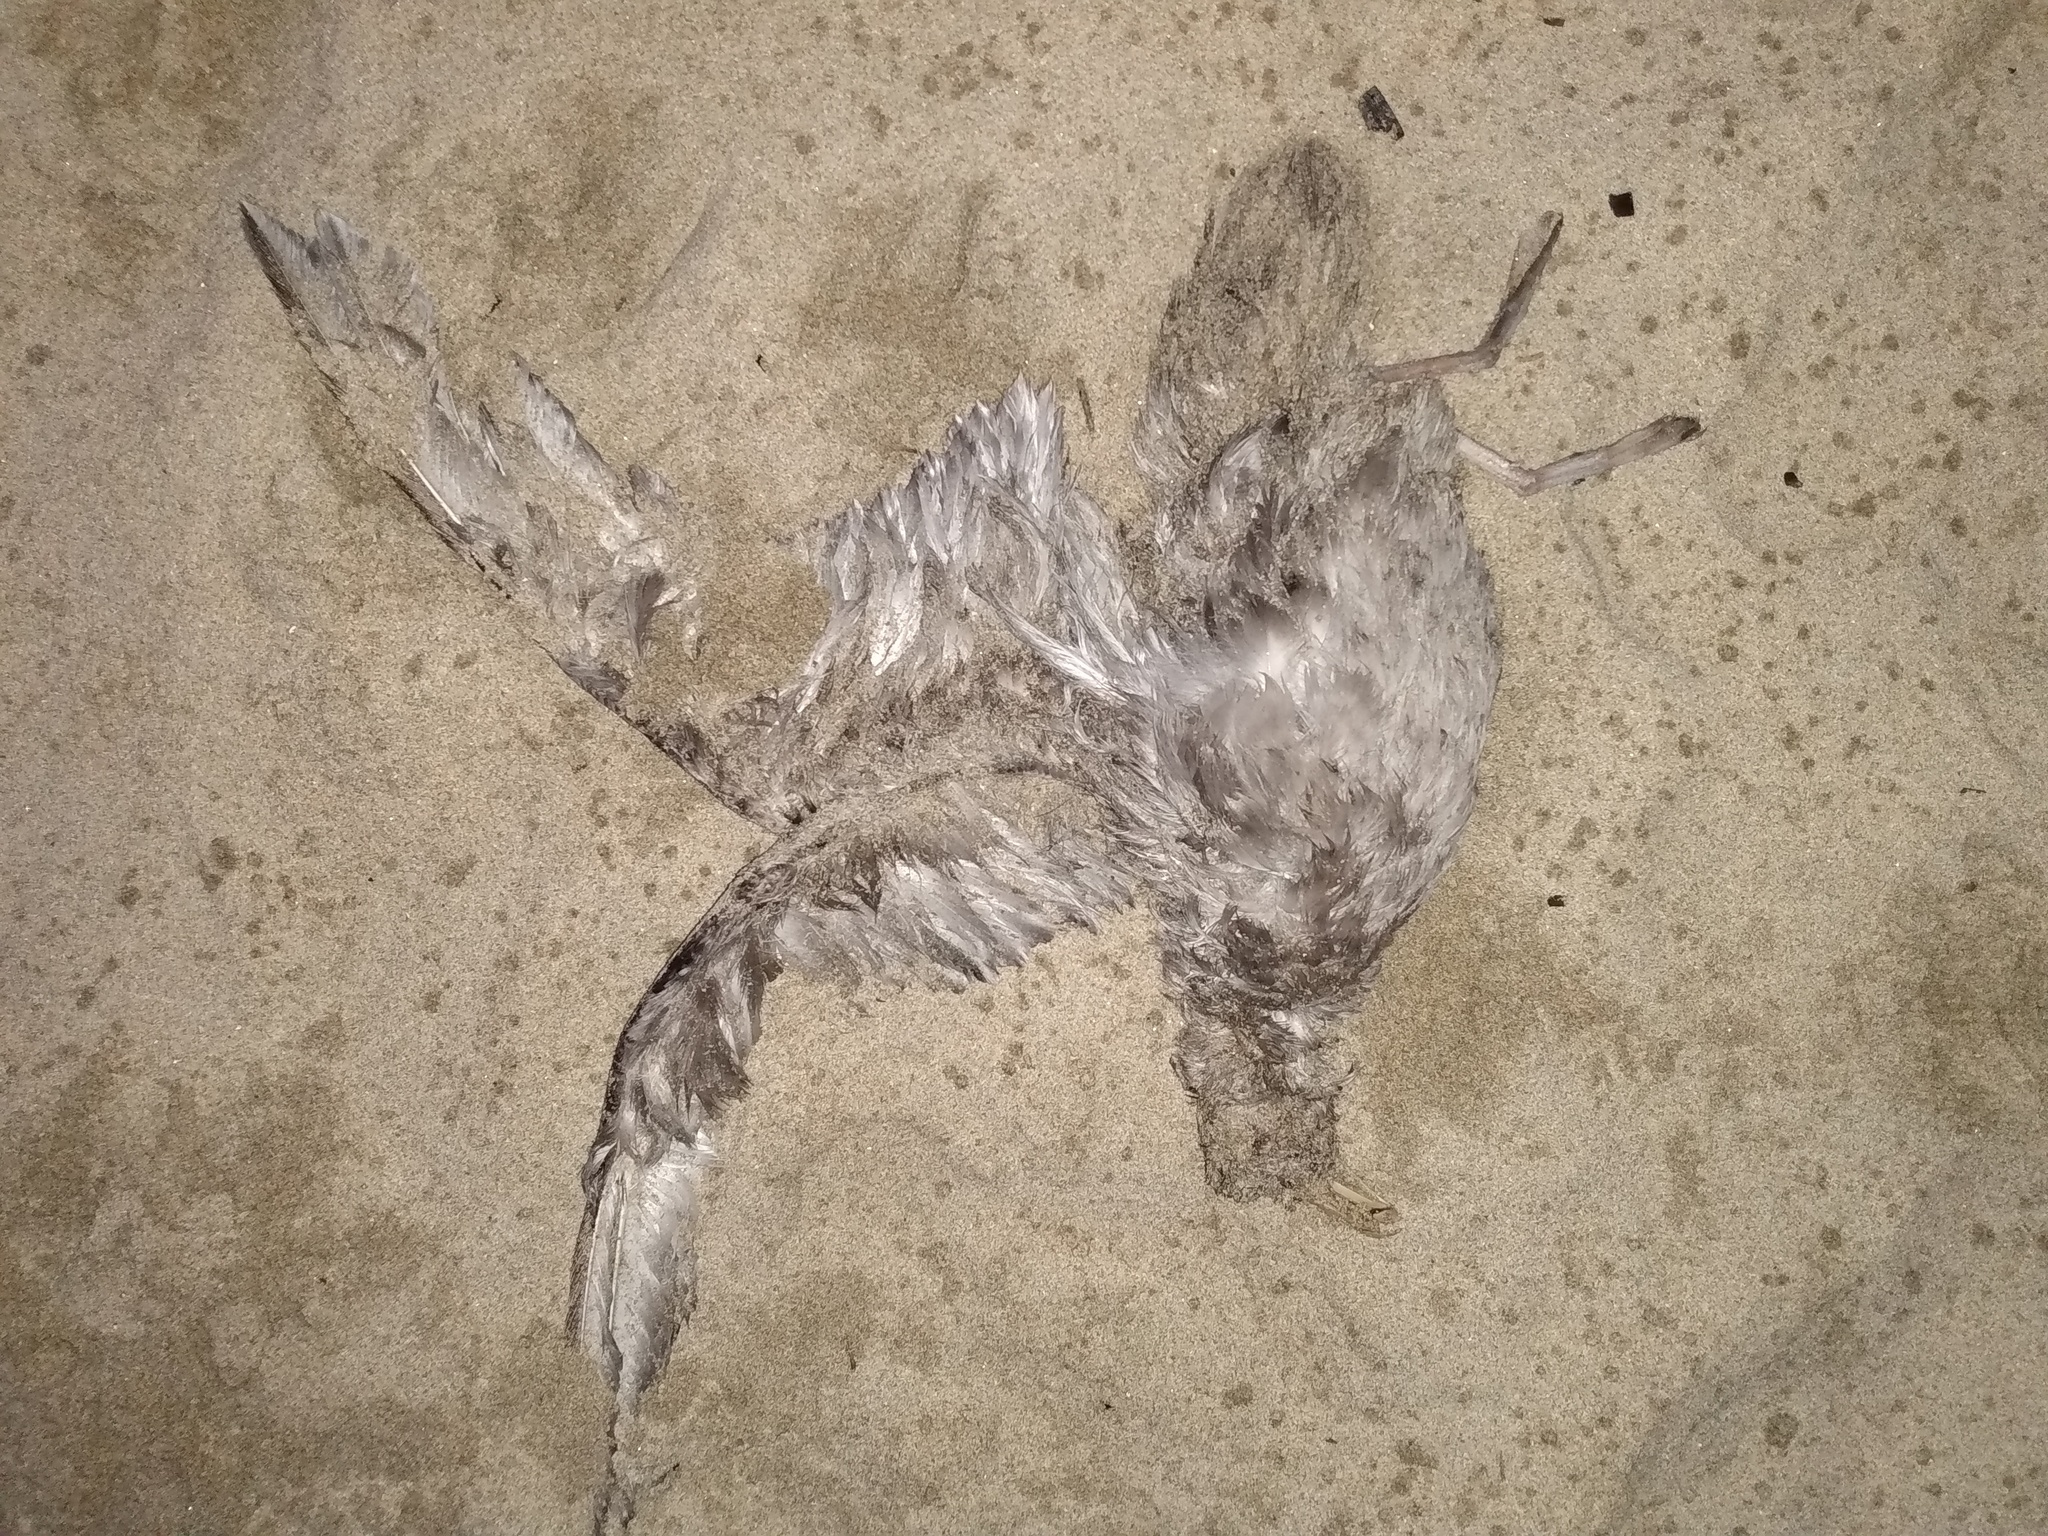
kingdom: Animalia
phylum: Chordata
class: Aves
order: Procellariiformes
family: Procellariidae
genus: Fulmarus
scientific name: Fulmarus glacialis
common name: Northern fulmar
